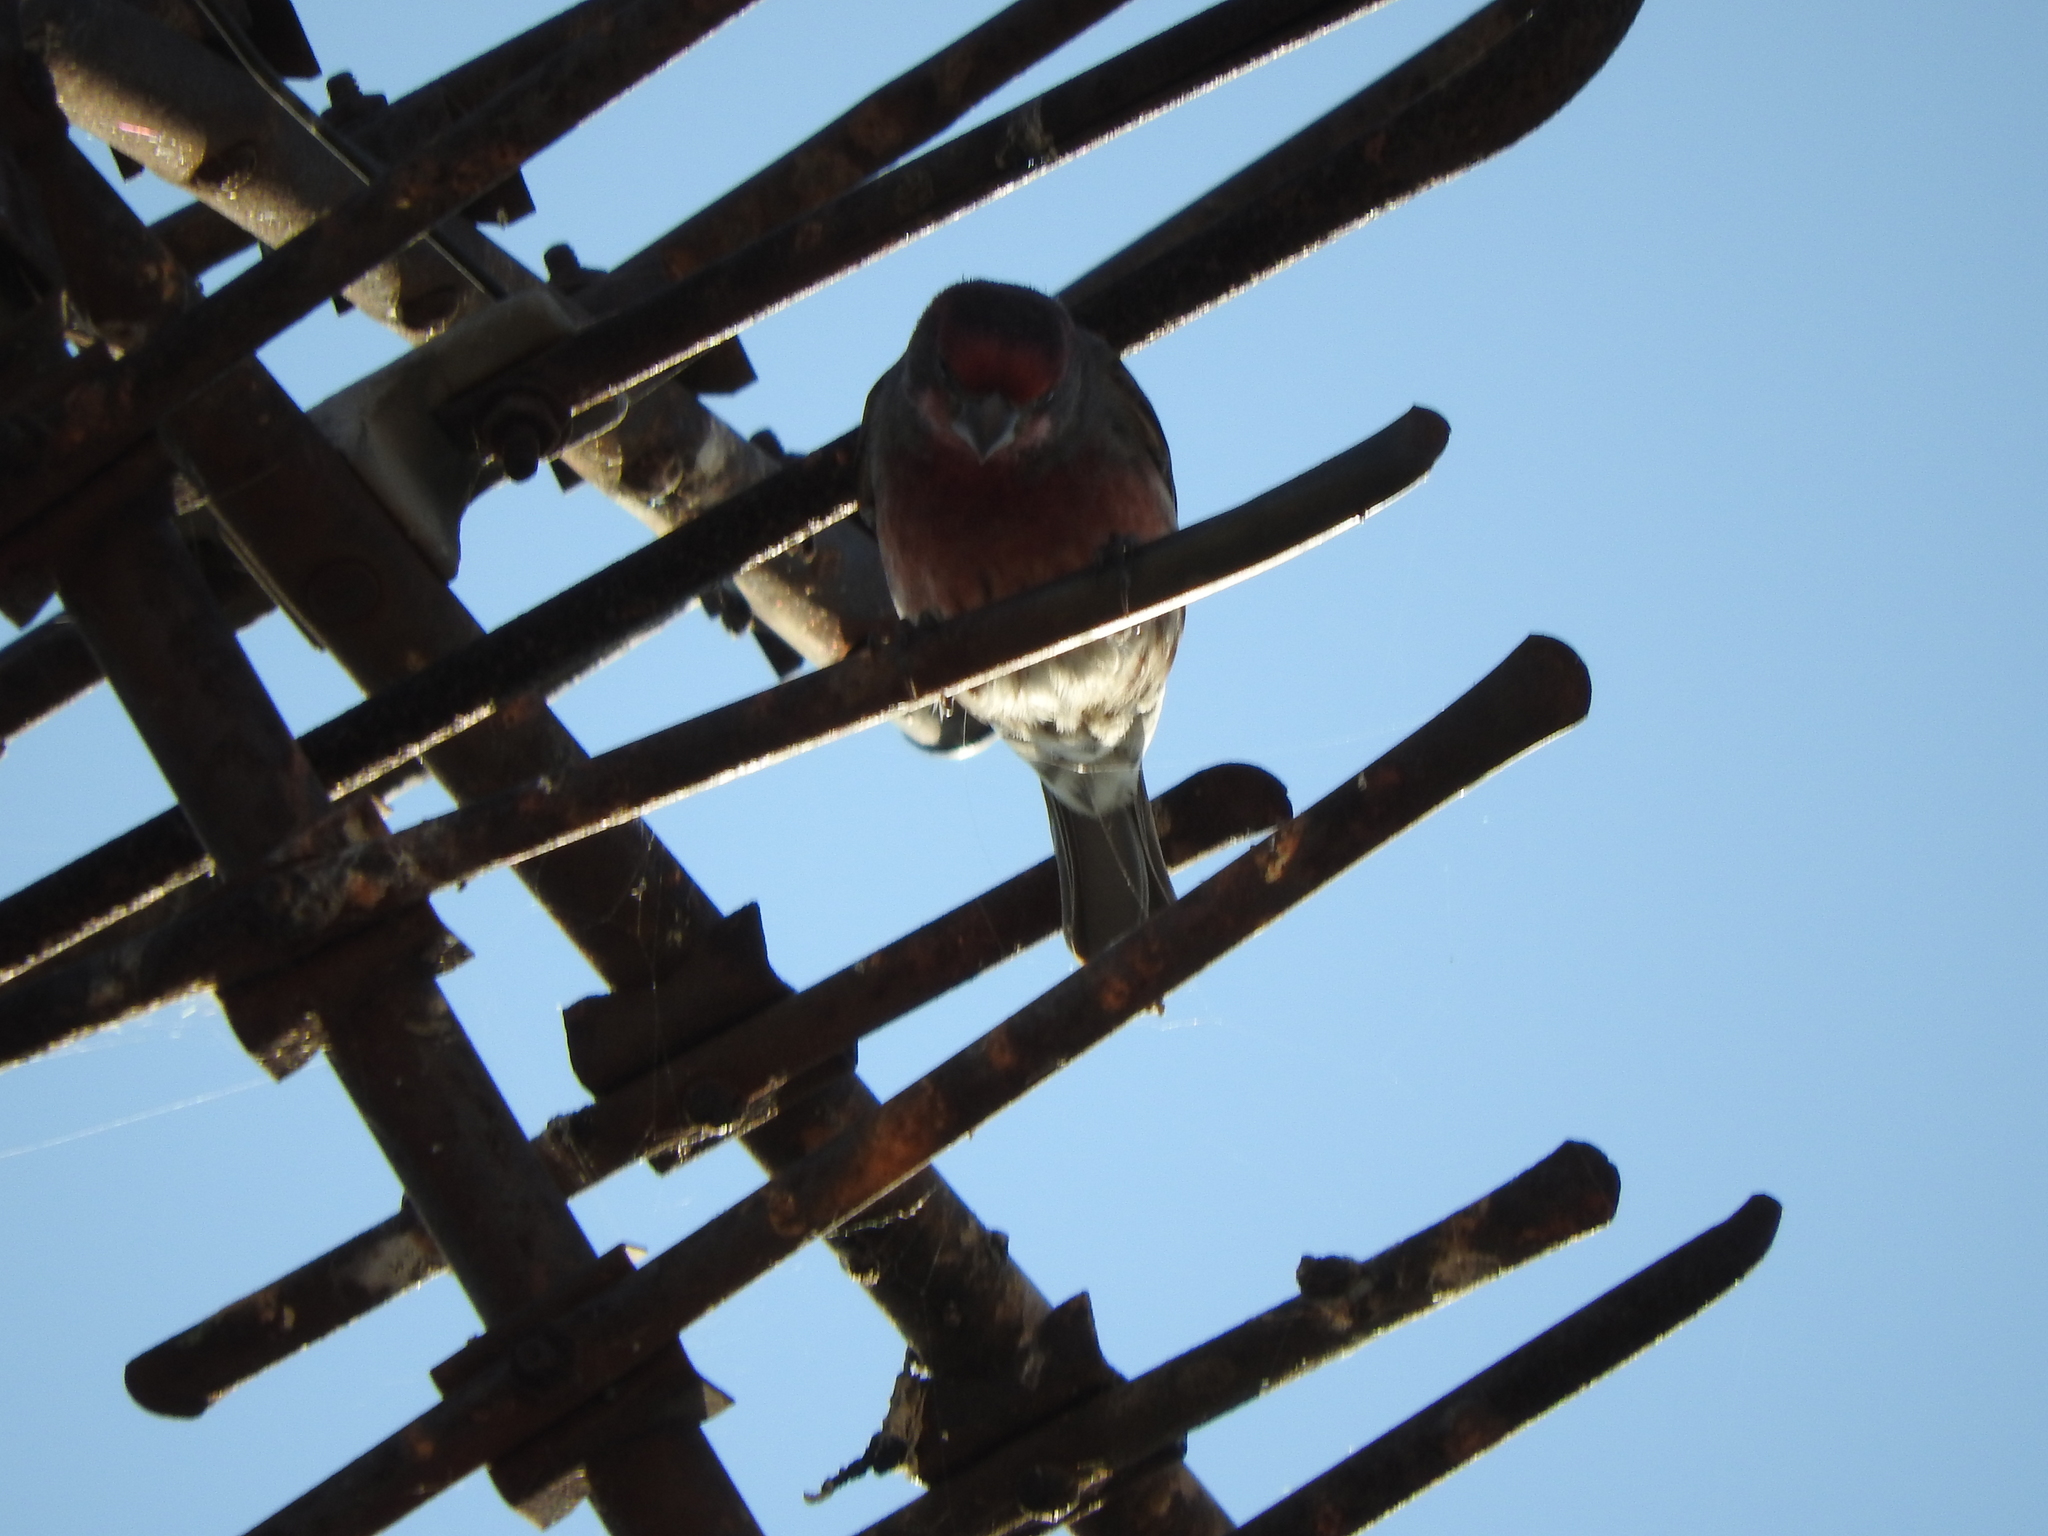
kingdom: Animalia
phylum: Chordata
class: Aves
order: Passeriformes
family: Fringillidae
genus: Haemorhous
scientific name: Haemorhous mexicanus
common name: House finch
